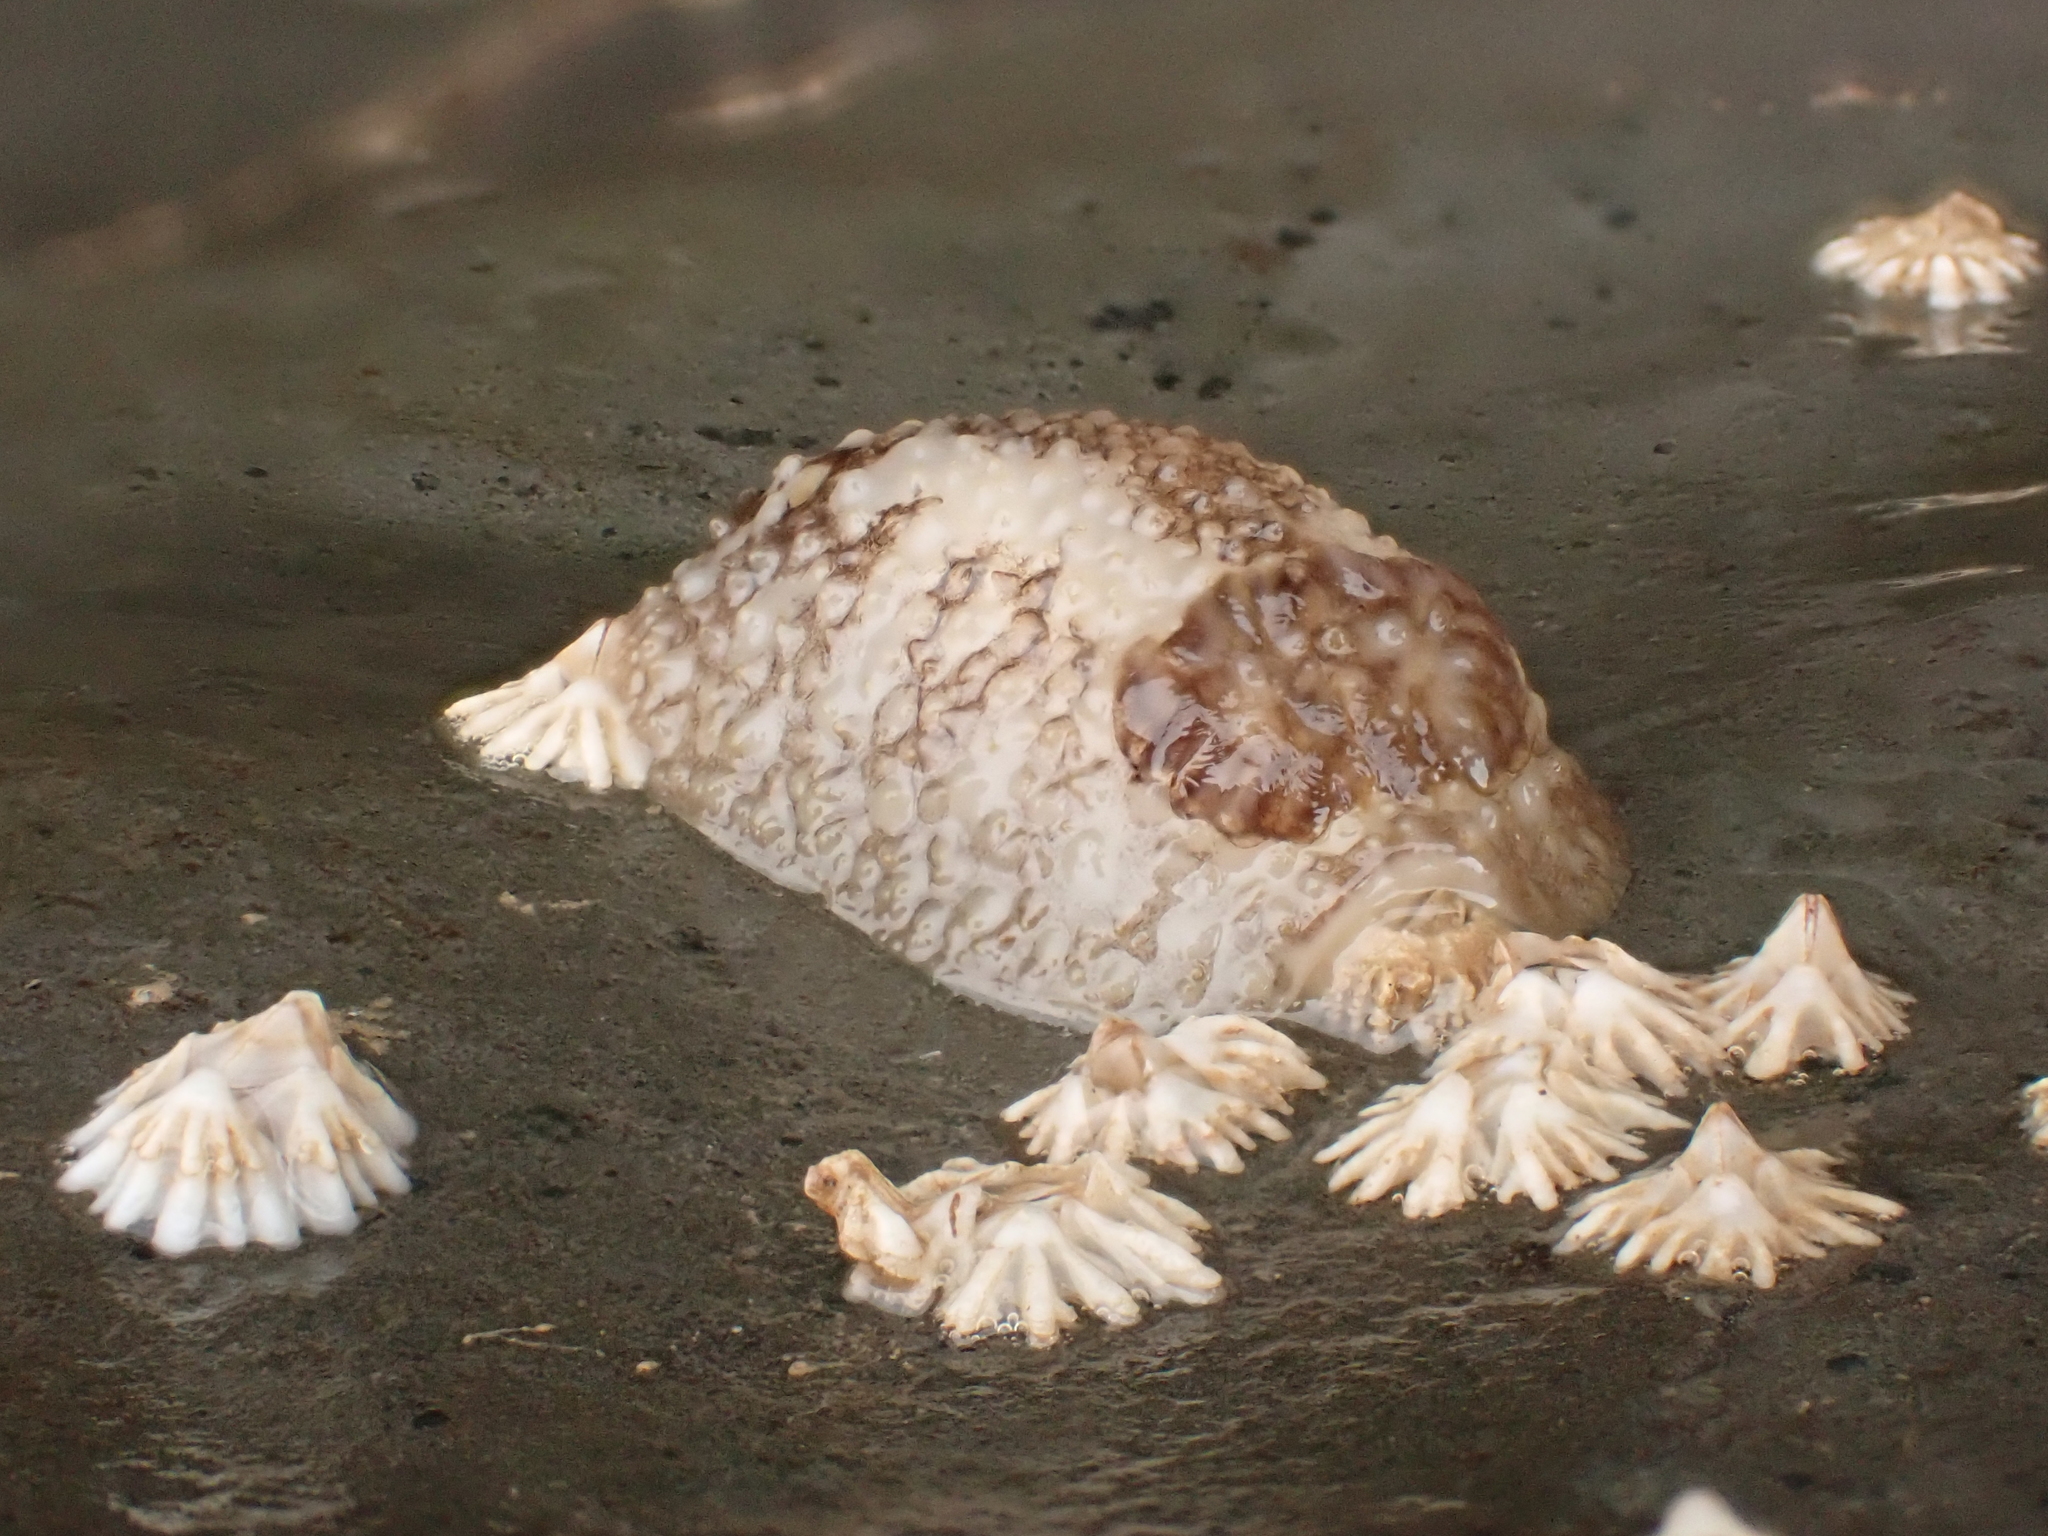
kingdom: Animalia
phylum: Mollusca
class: Gastropoda
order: Nudibranchia
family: Onchidorididae
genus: Onchidoris
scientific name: Onchidoris bilamellata
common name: Barnacle-eating onchidoris
